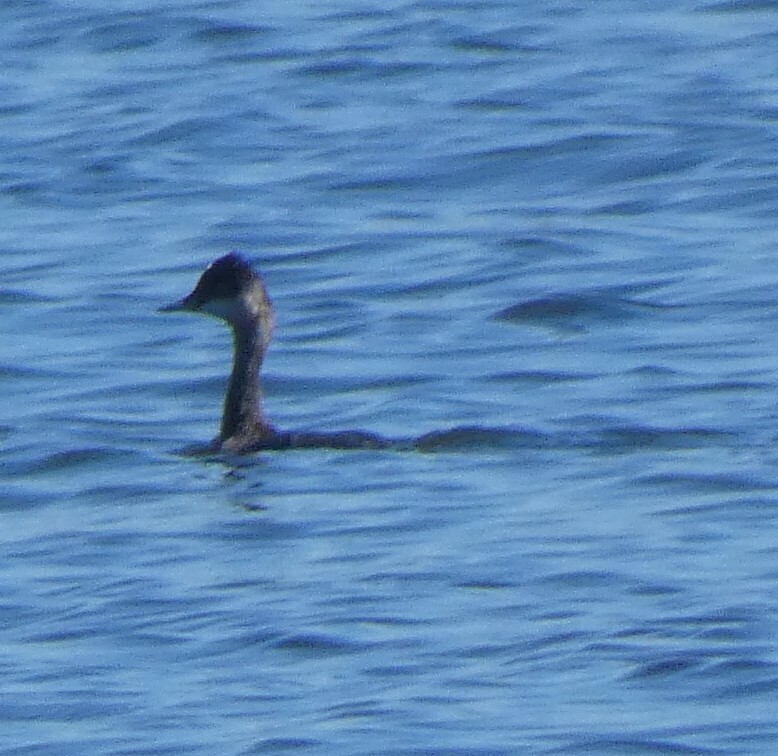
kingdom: Animalia
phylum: Chordata
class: Aves
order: Podicipediformes
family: Podicipedidae
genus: Podiceps
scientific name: Podiceps nigricollis
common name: Black-necked grebe
